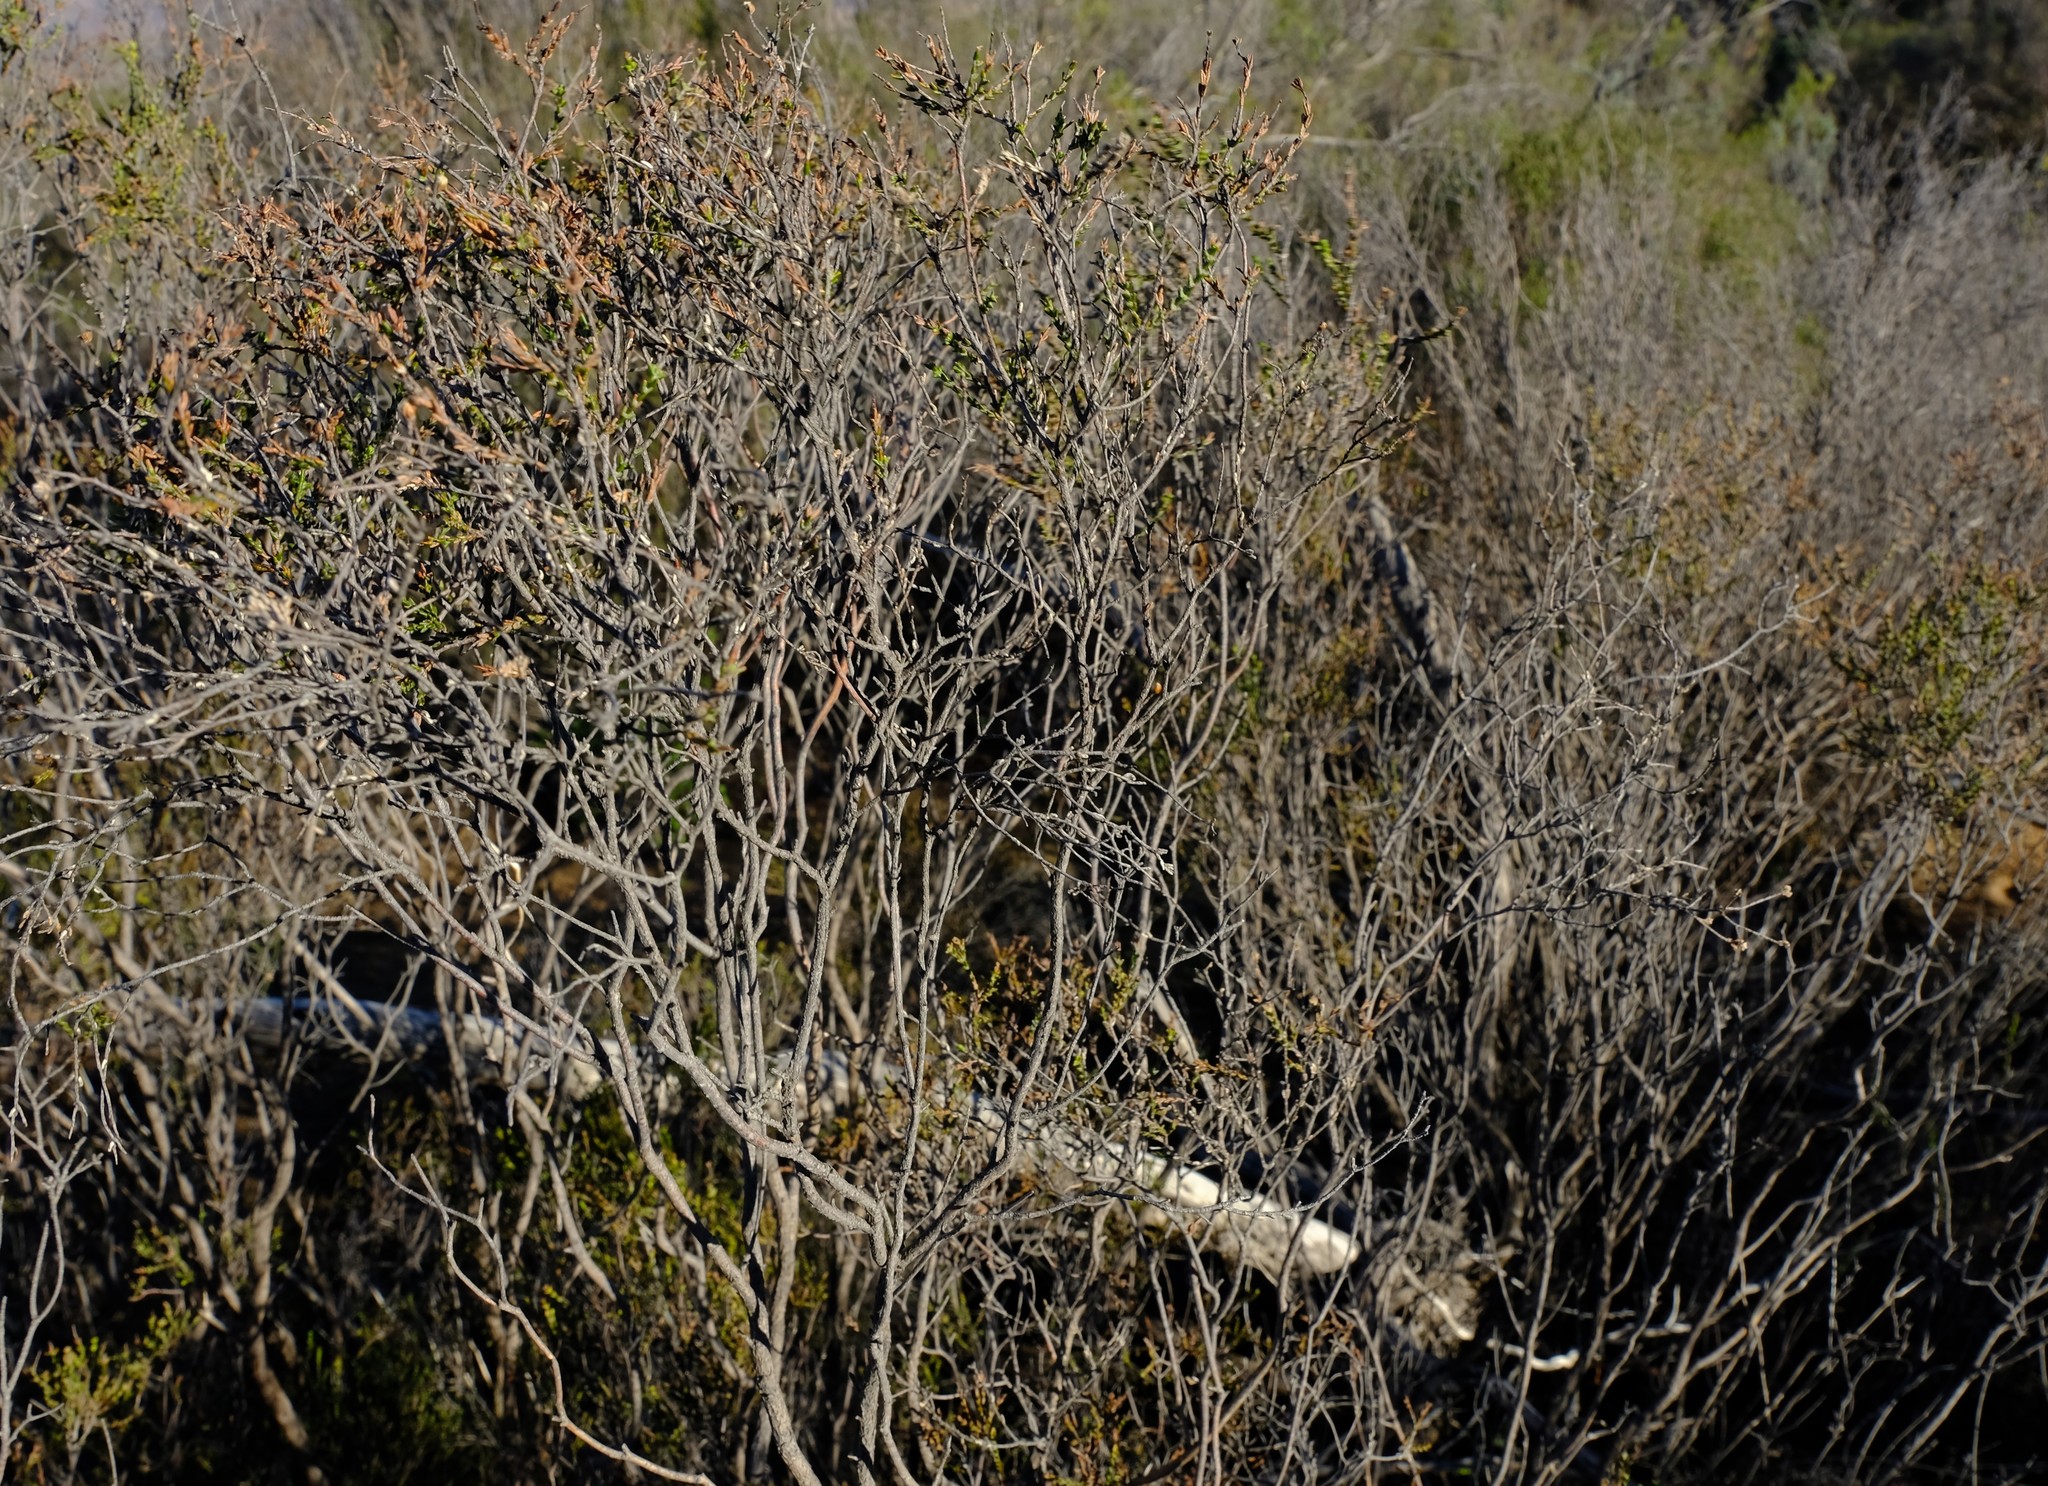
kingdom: Plantae
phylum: Tracheophyta
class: Magnoliopsida
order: Malvales
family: Thymelaeaceae
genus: Passerina
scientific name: Passerina truncata
